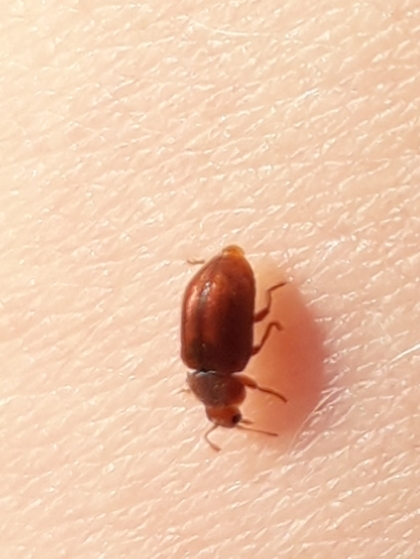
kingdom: Animalia
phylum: Arthropoda
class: Insecta
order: Coleoptera
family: Coccinellidae
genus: Coccidula
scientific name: Coccidula rufa
